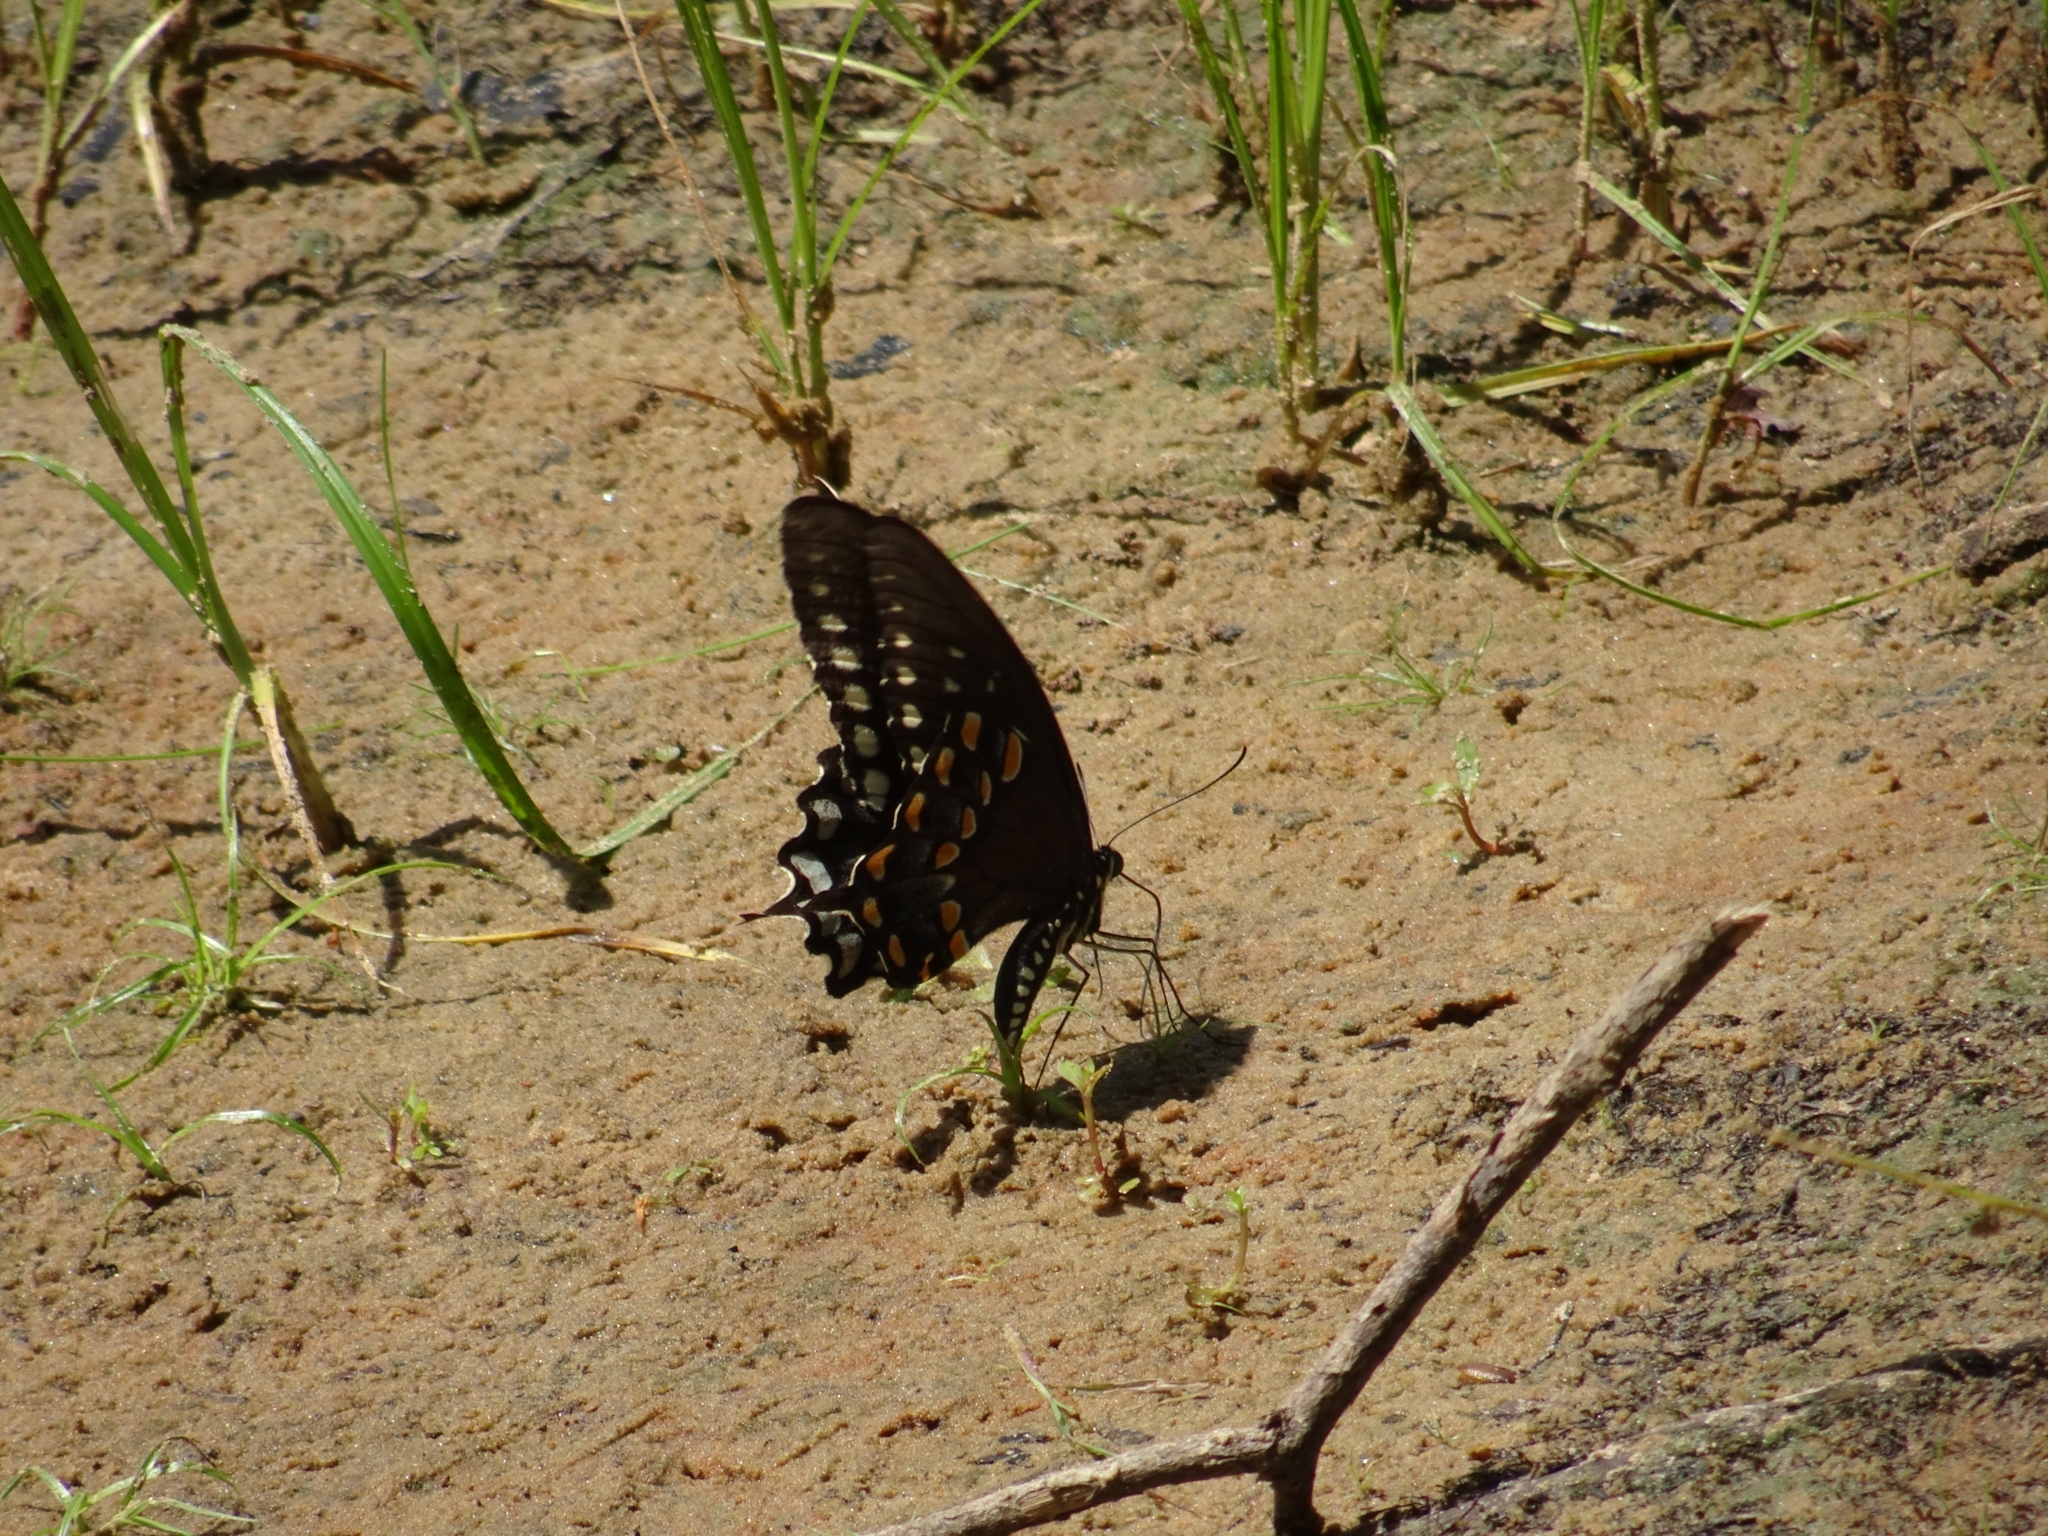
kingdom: Animalia
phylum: Arthropoda
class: Insecta
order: Lepidoptera
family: Papilionidae
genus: Papilio
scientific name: Papilio troilus
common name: Spicebush swallowtail
